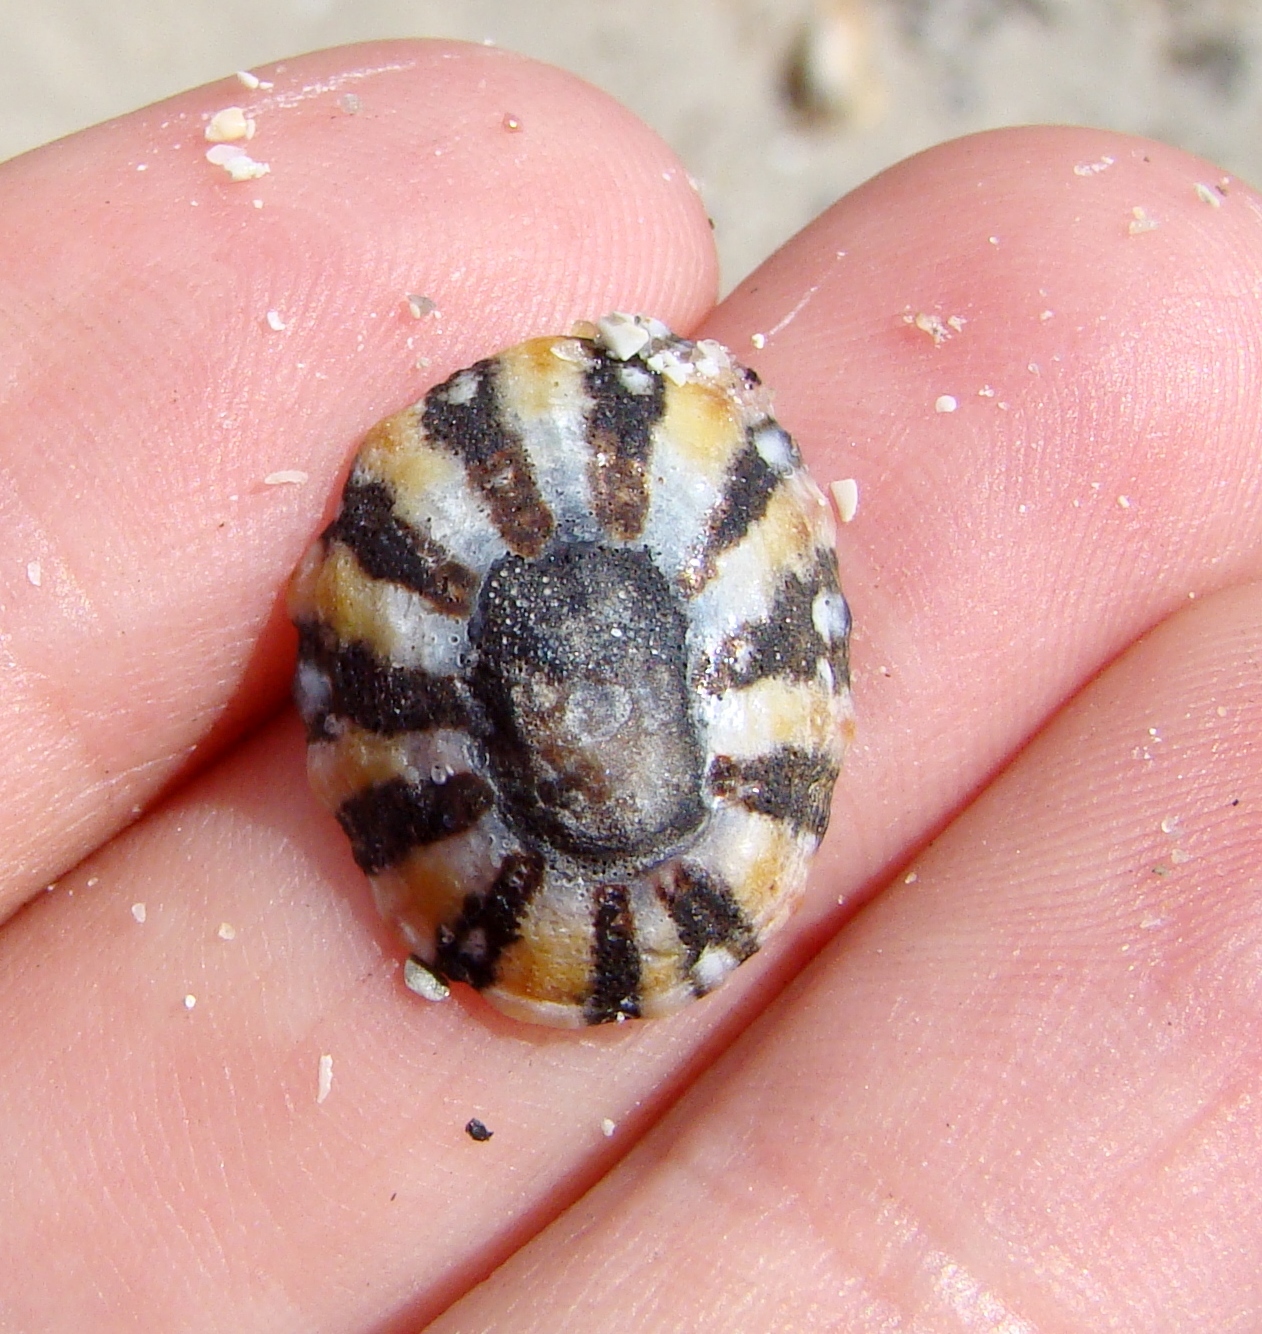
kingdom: Animalia
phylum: Mollusca
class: Gastropoda
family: Nacellidae
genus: Cellana
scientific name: Cellana ornata
